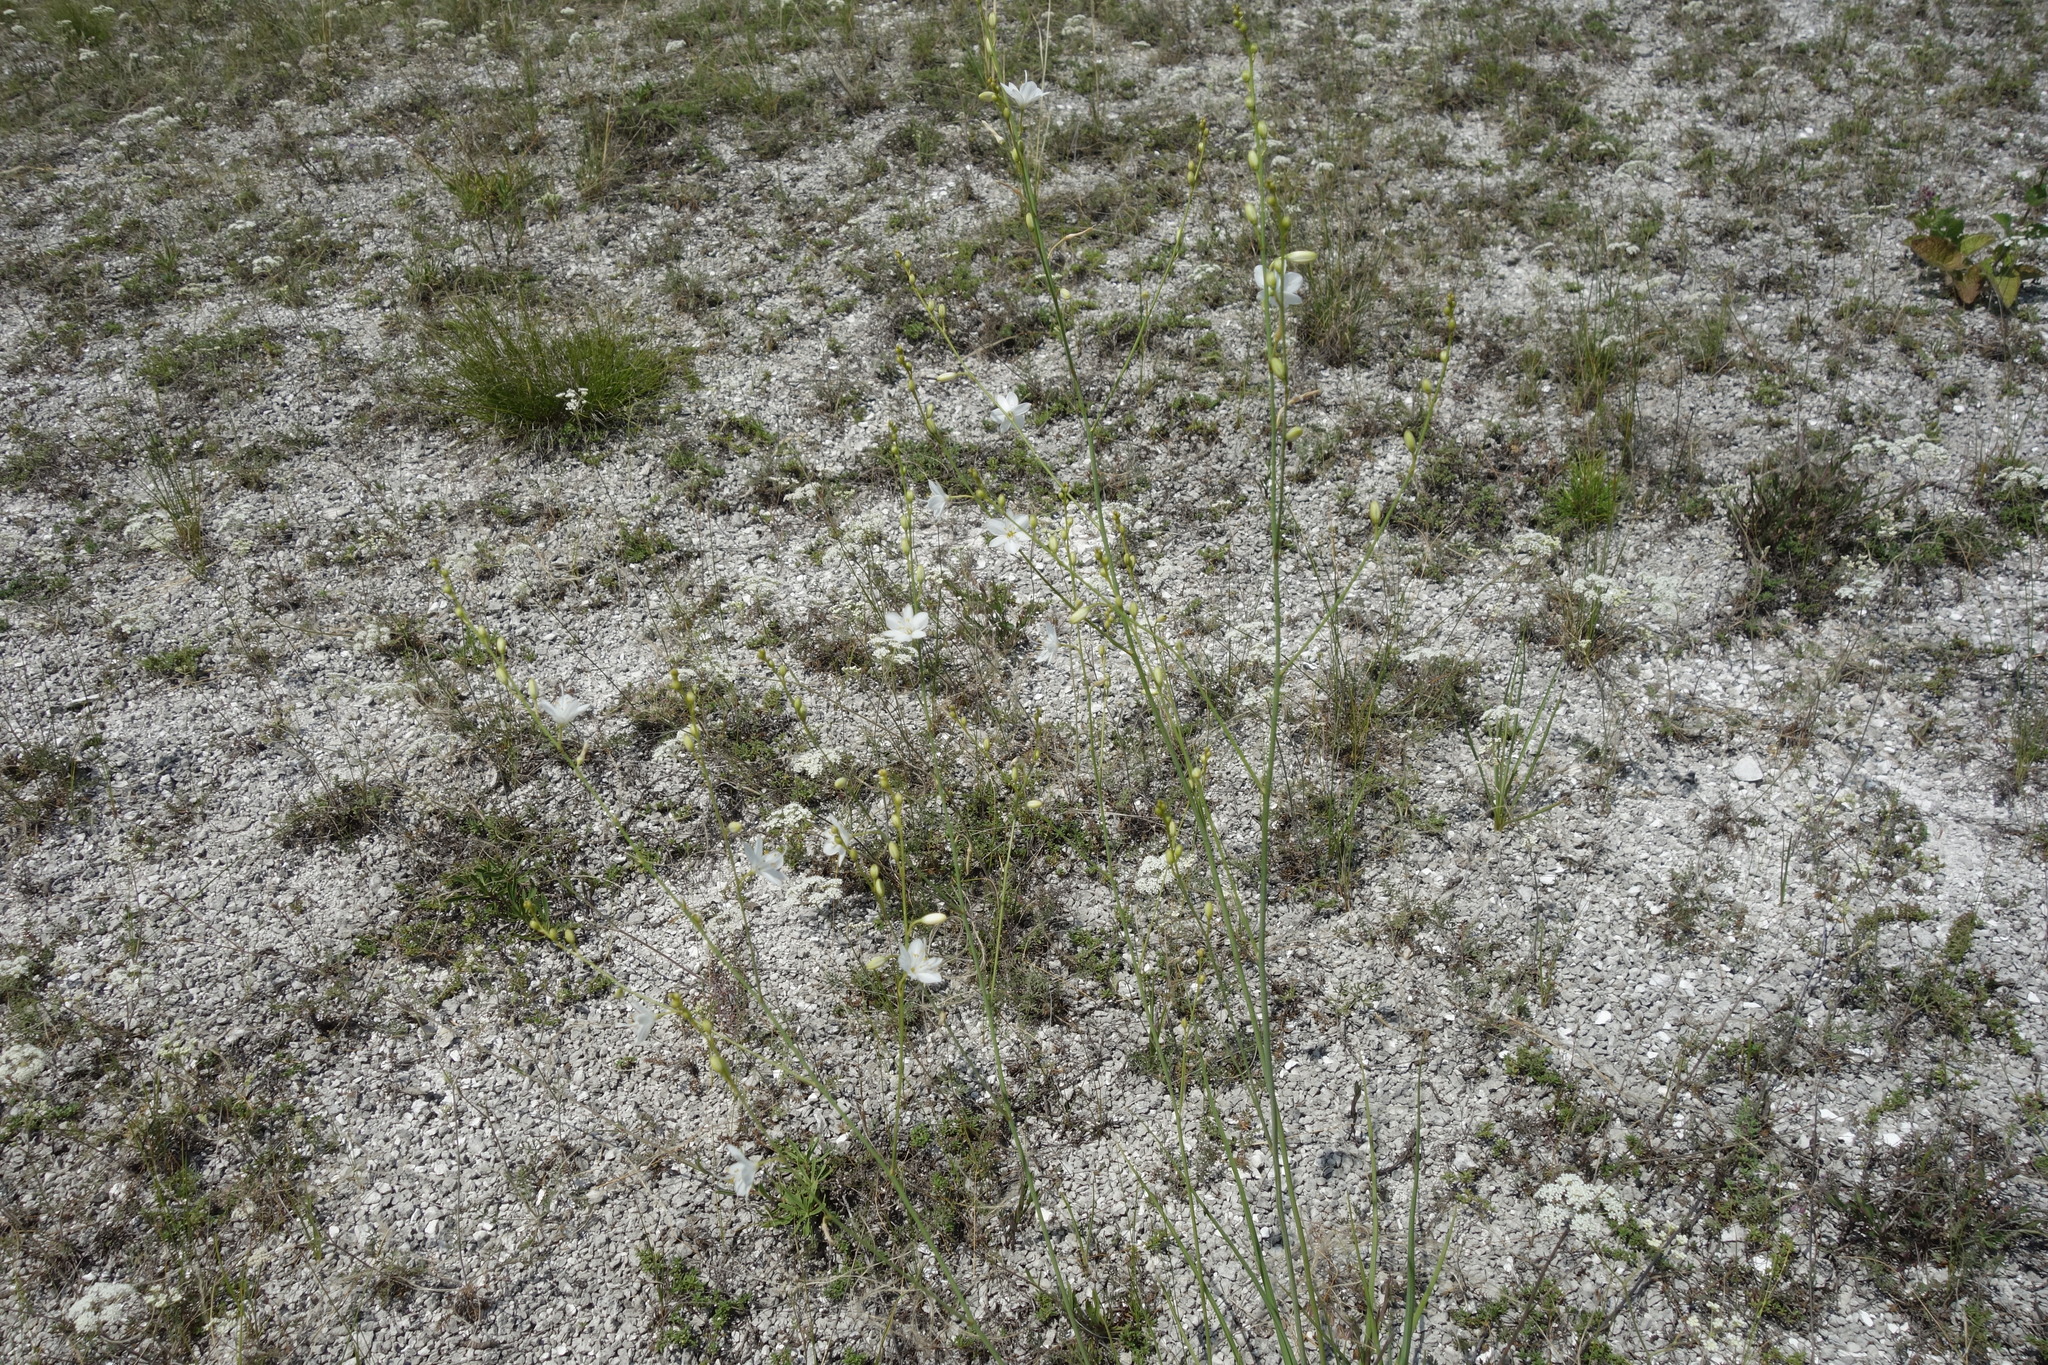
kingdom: Plantae
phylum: Tracheophyta
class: Liliopsida
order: Asparagales
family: Asparagaceae
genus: Anthericum
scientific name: Anthericum ramosum
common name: Branched st. bernard's-lily
